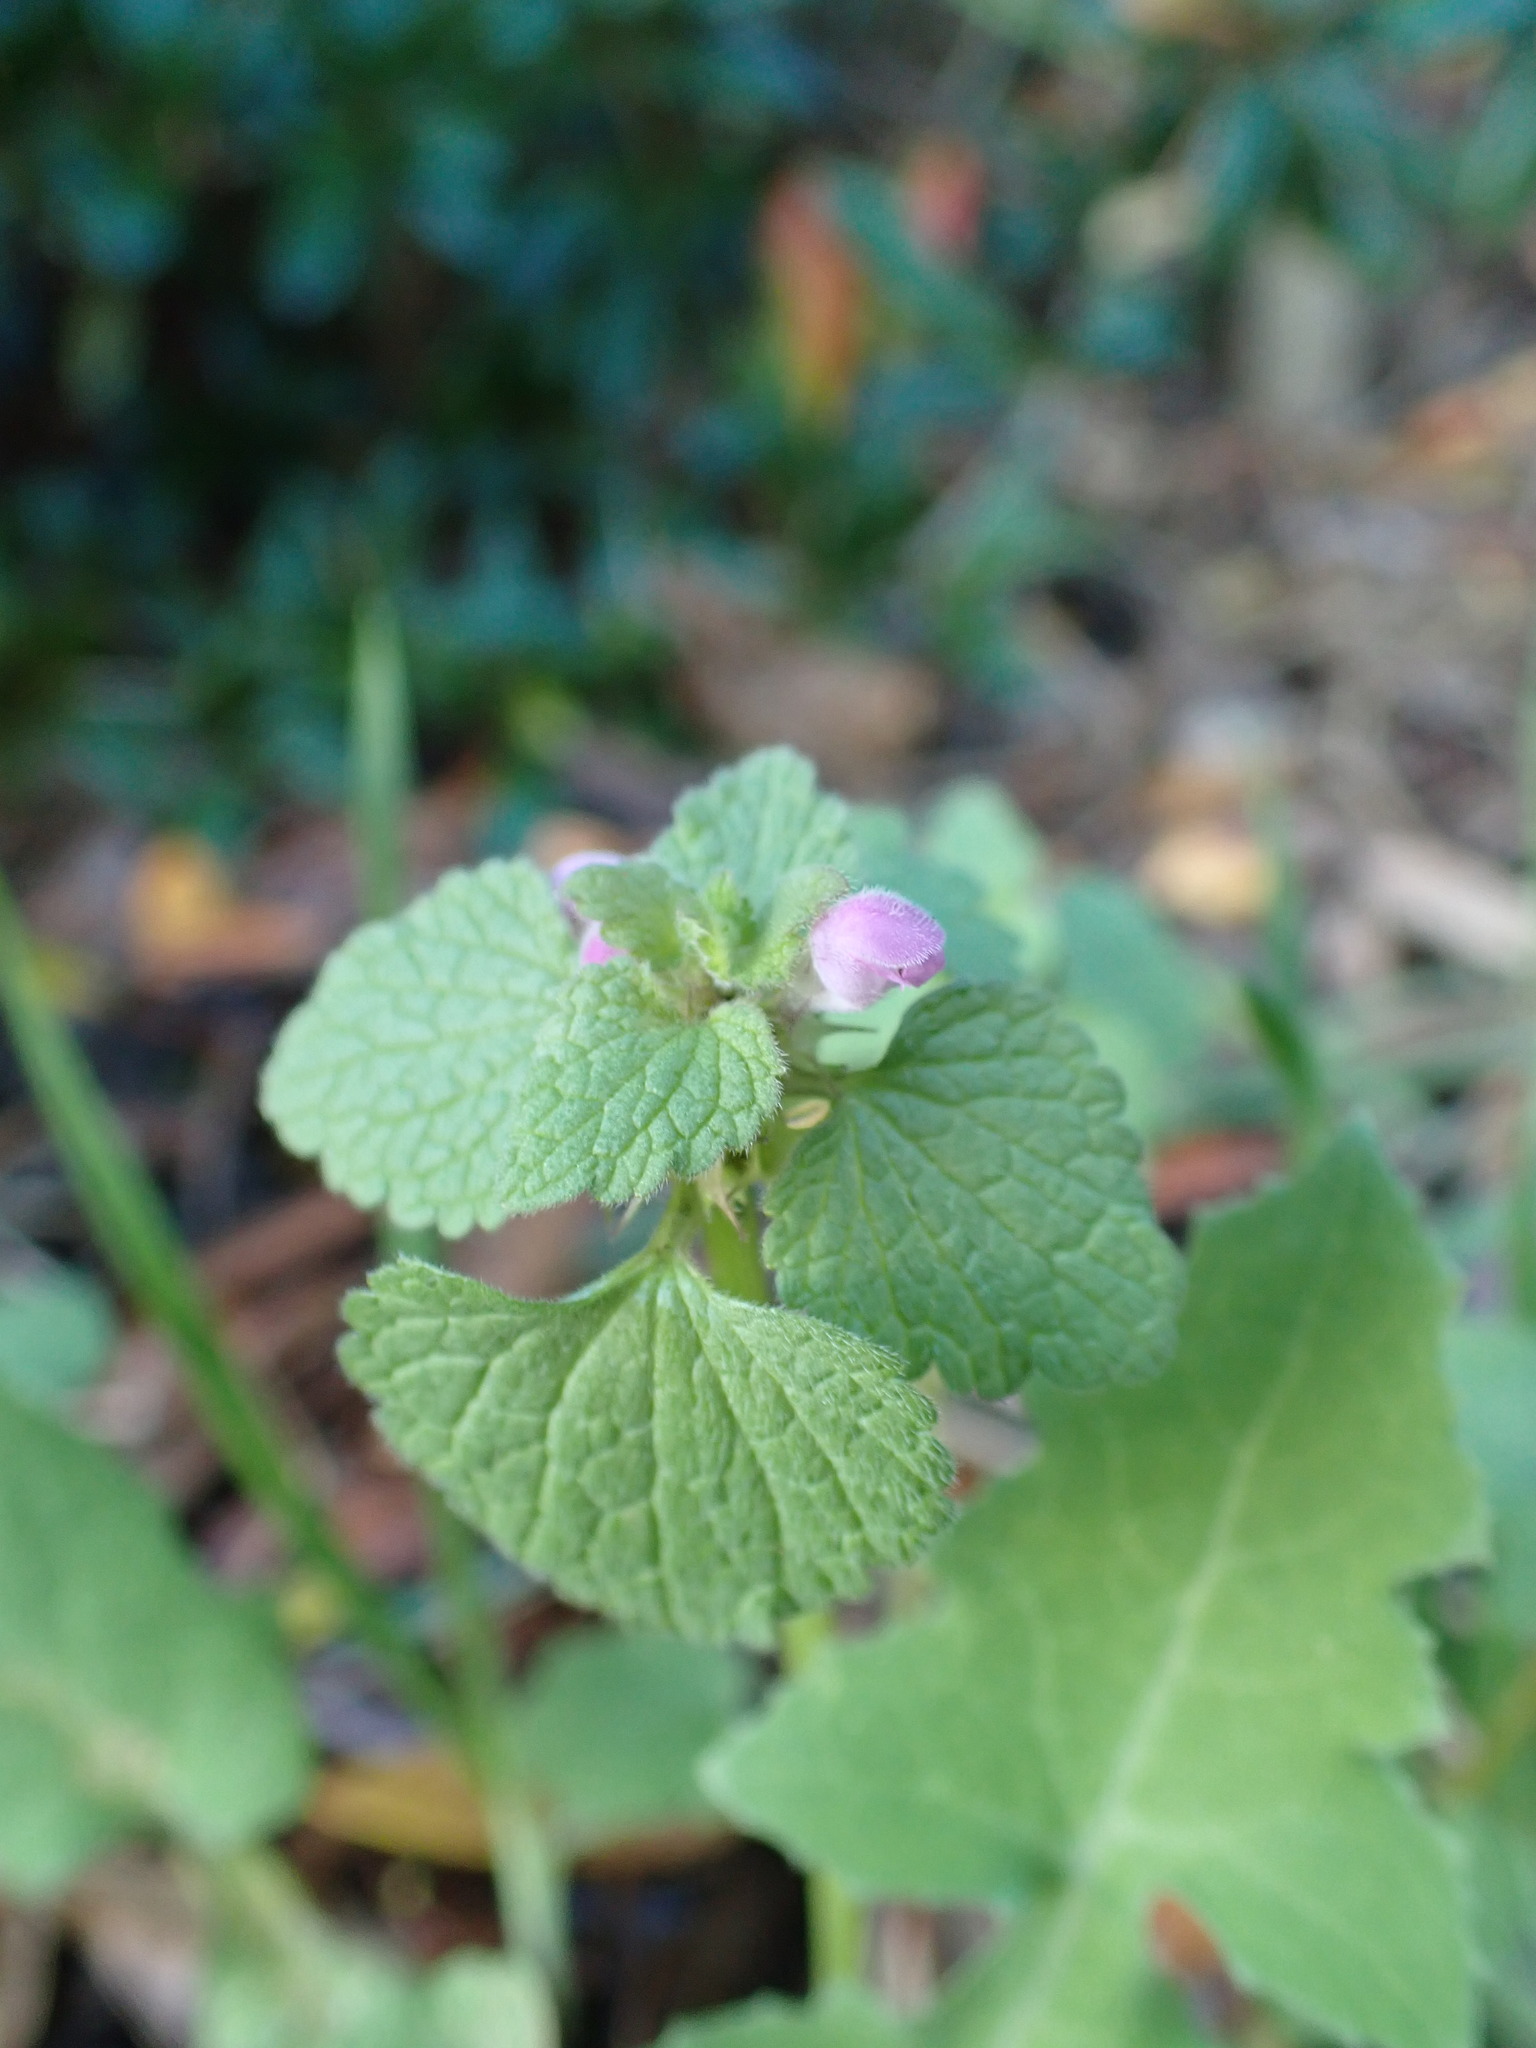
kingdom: Plantae
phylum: Tracheophyta
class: Magnoliopsida
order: Lamiales
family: Lamiaceae
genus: Lamium
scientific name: Lamium purpureum
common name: Red dead-nettle
